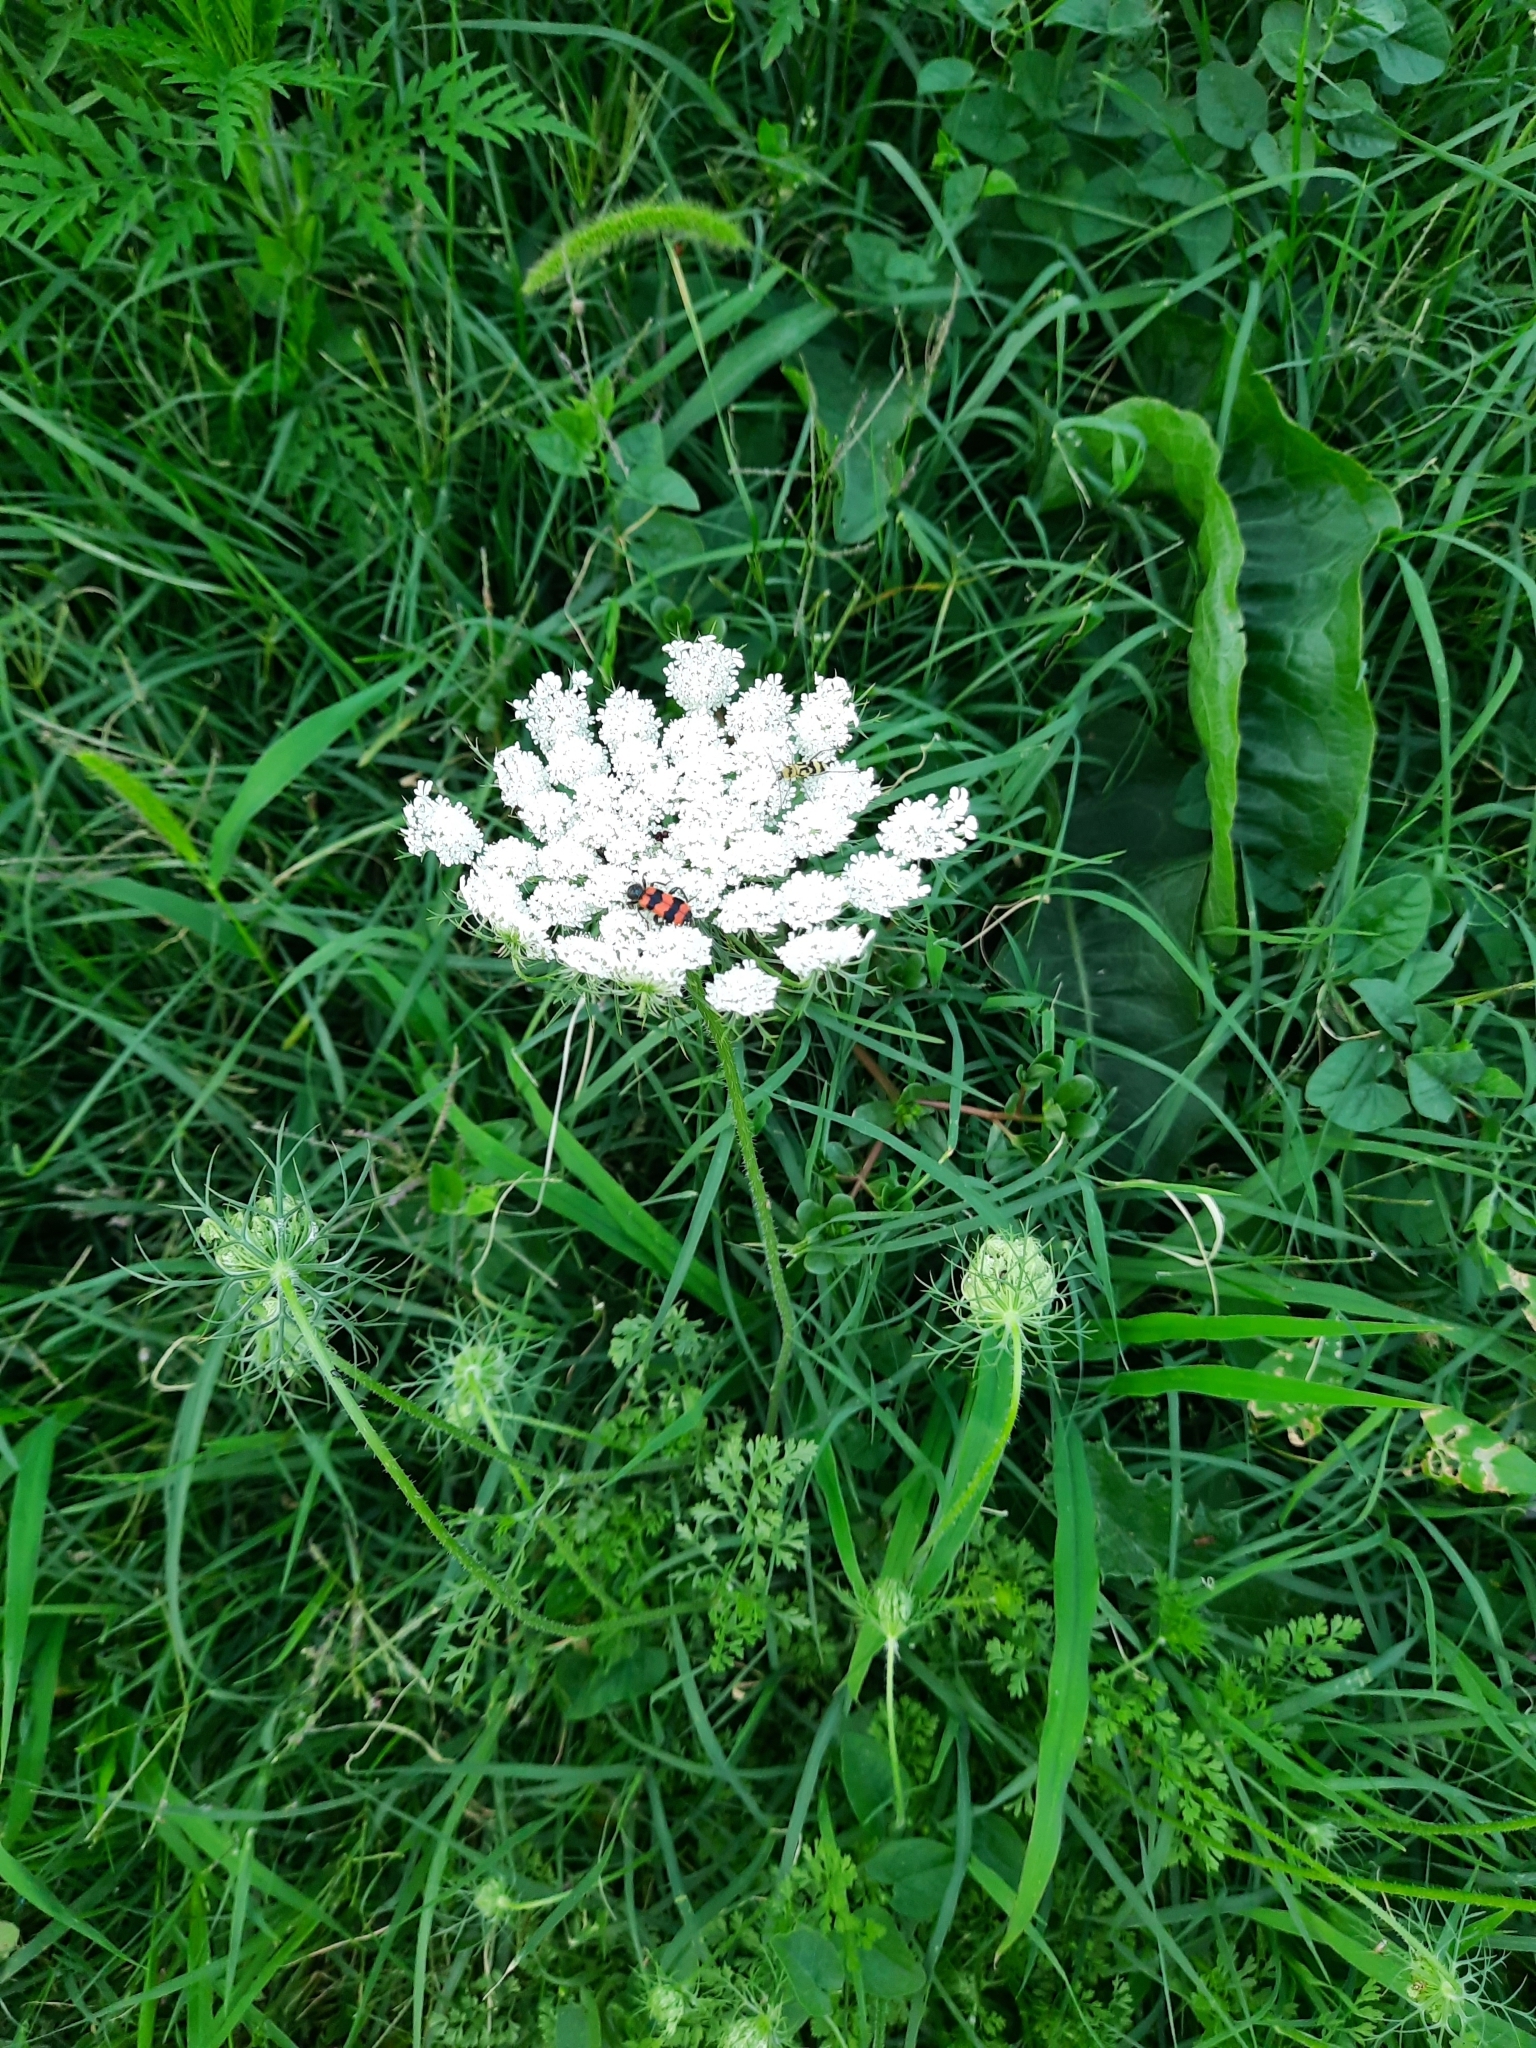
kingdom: Plantae
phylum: Tracheophyta
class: Magnoliopsida
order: Apiales
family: Apiaceae
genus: Daucus
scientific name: Daucus carota
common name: Wild carrot
